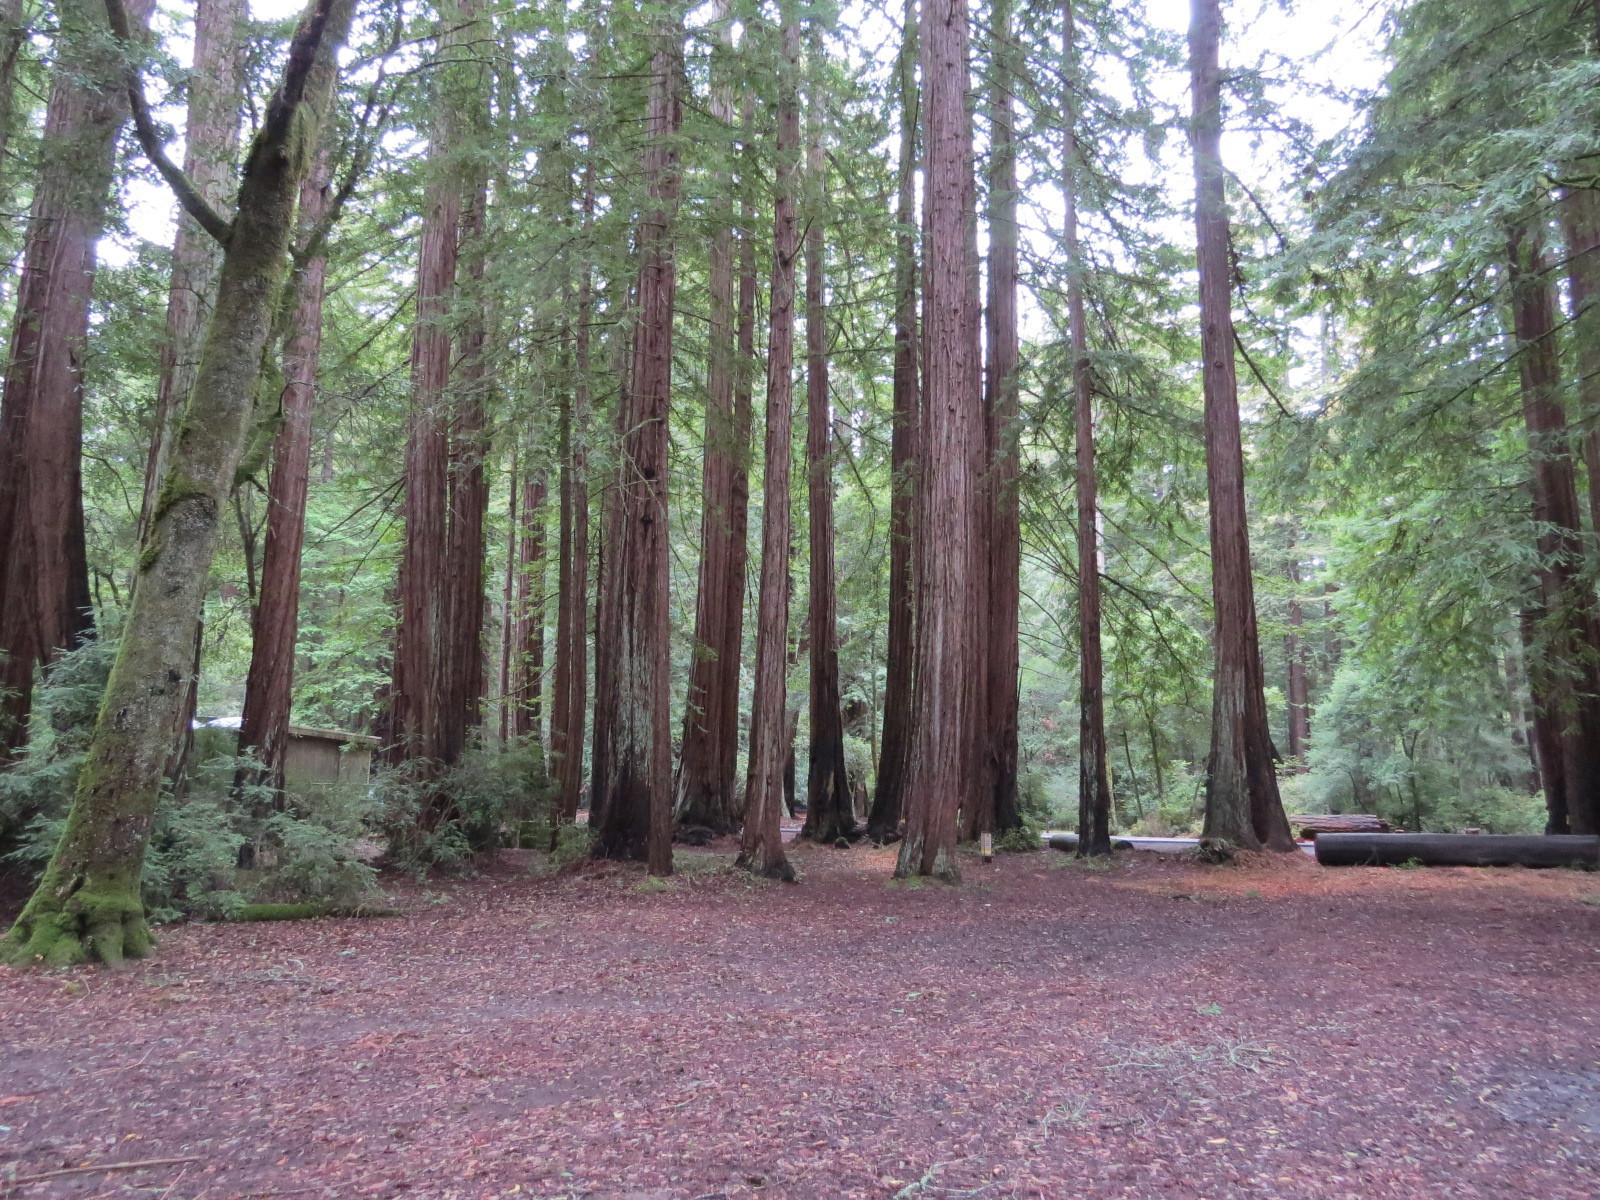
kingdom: Plantae
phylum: Tracheophyta
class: Pinopsida
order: Pinales
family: Cupressaceae
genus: Sequoia
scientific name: Sequoia sempervirens
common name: Coast redwood
